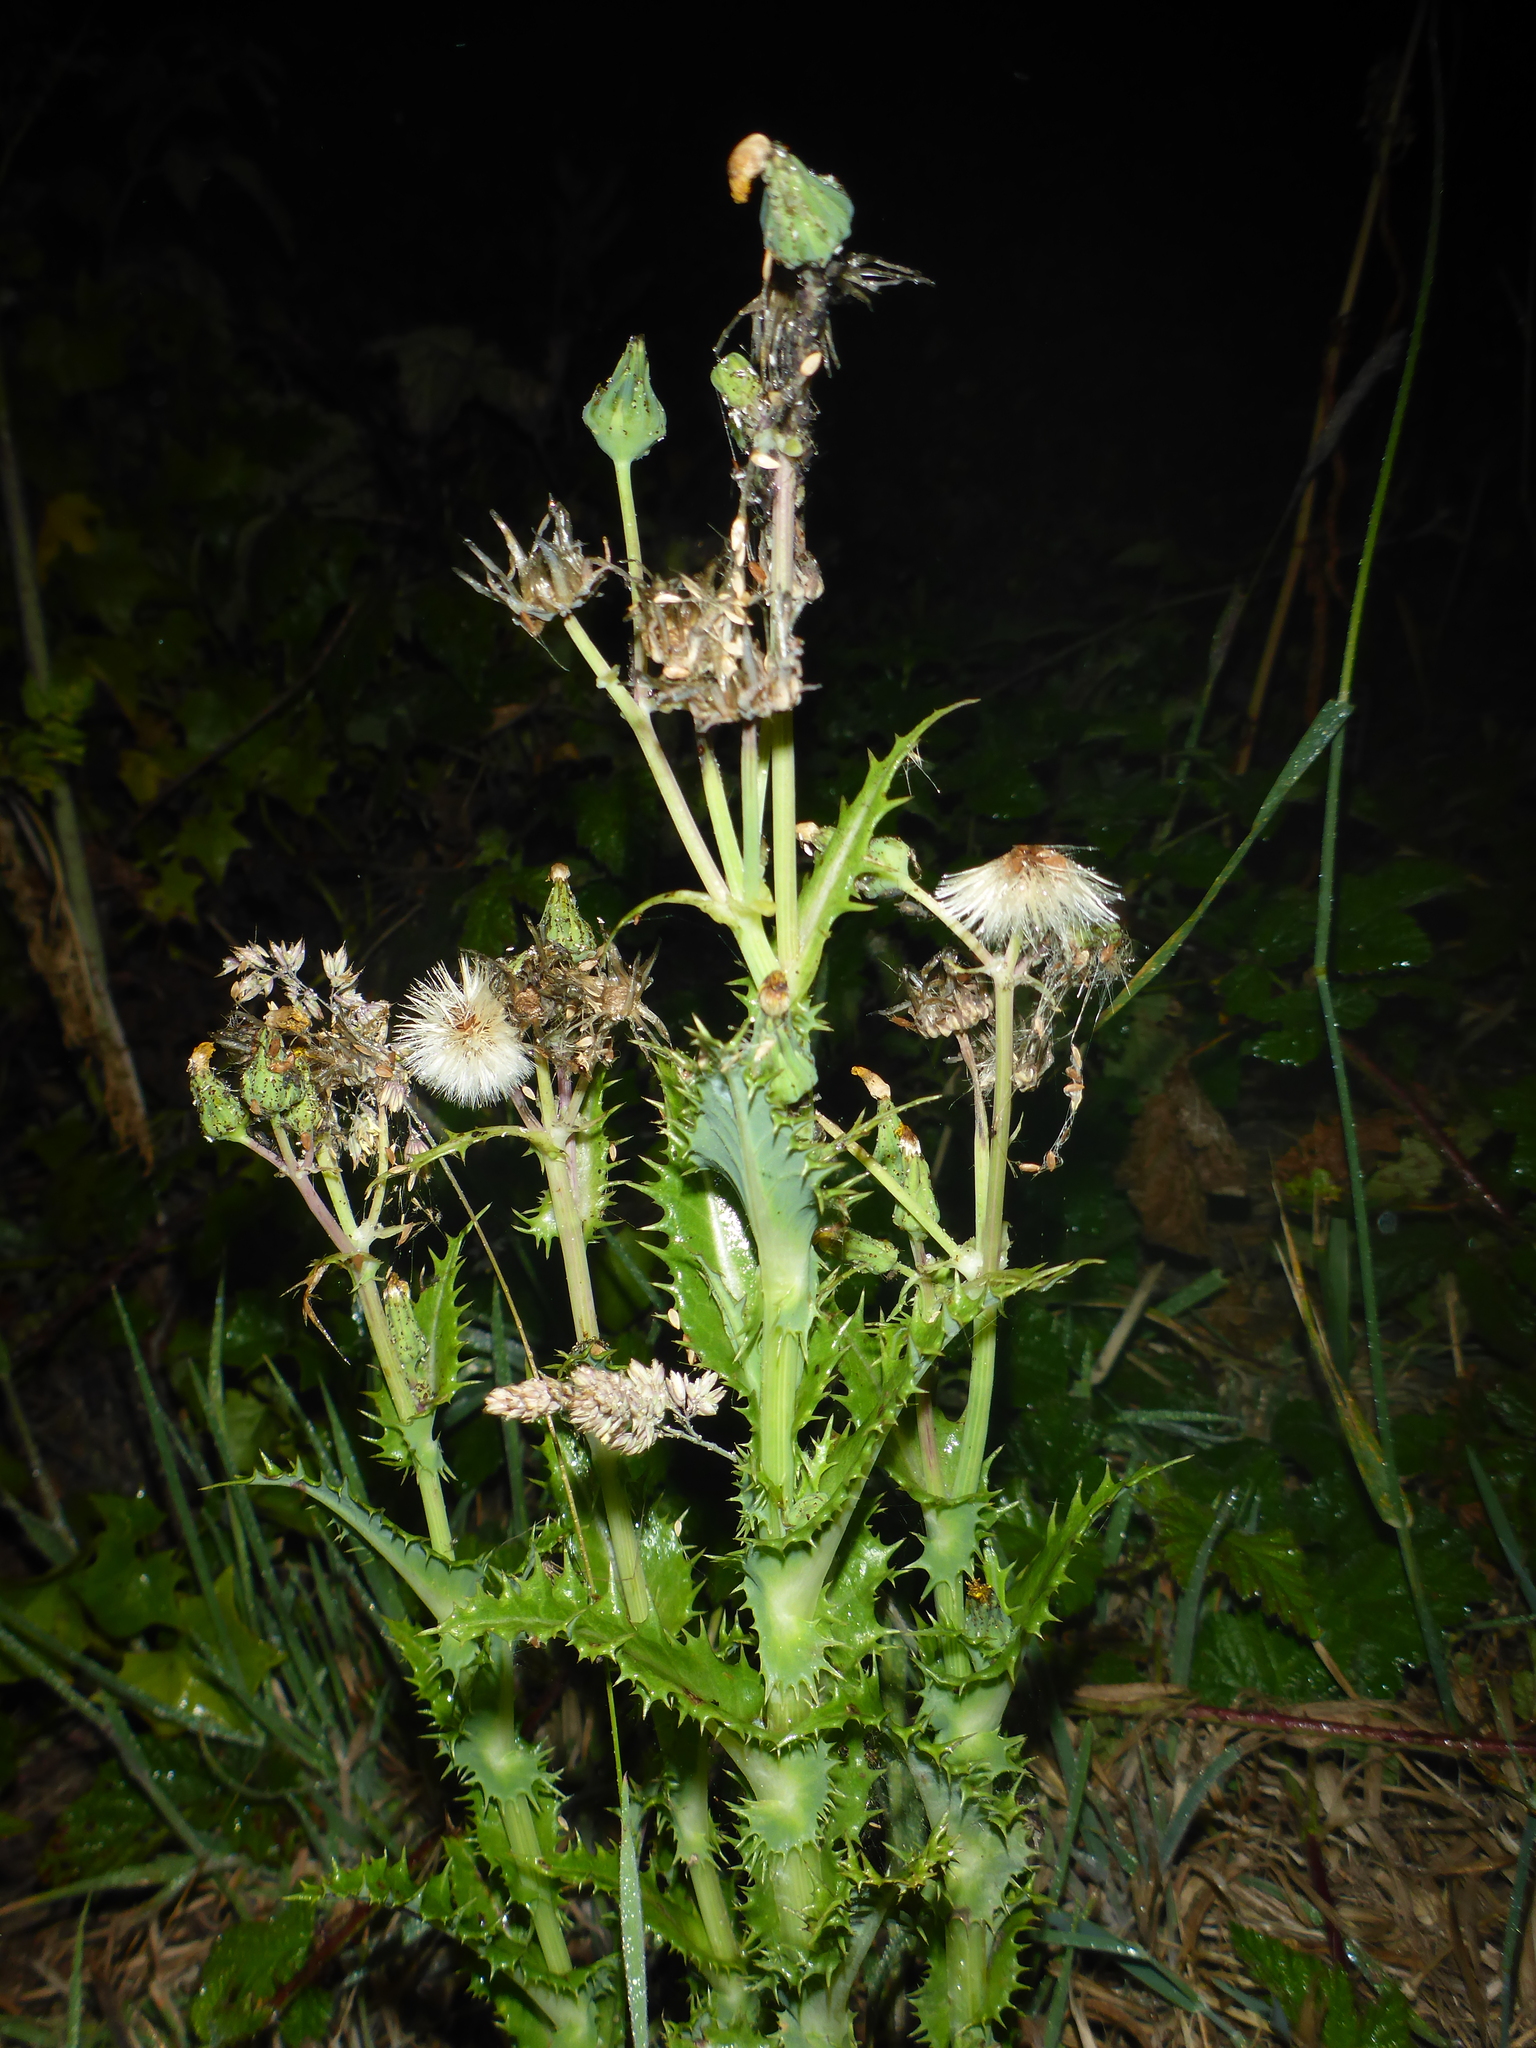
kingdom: Plantae
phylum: Tracheophyta
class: Magnoliopsida
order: Asterales
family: Asteraceae
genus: Sonchus
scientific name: Sonchus asper
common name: Prickly sow-thistle
